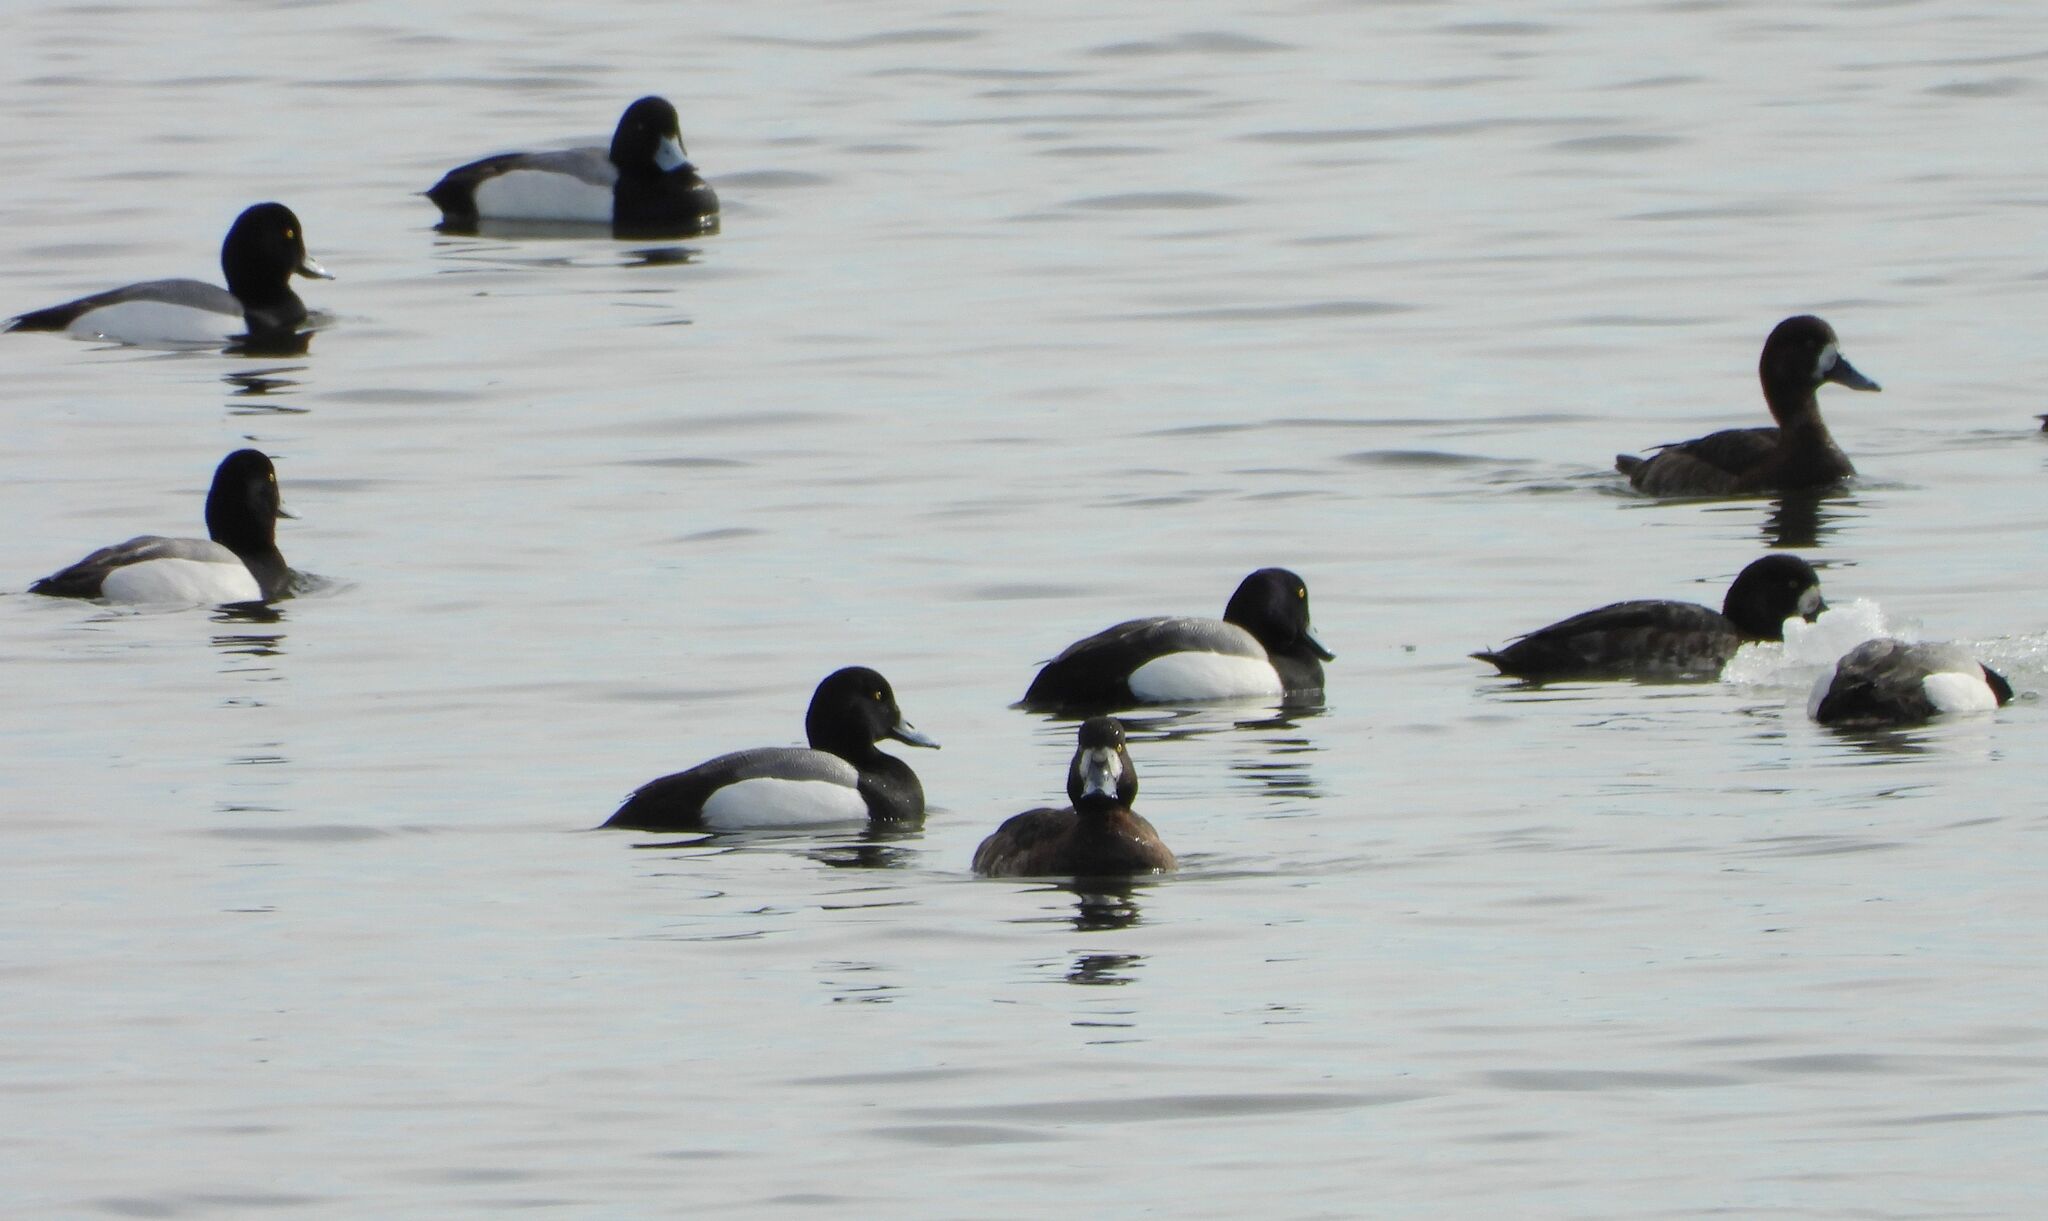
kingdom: Animalia
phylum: Chordata
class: Aves
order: Anseriformes
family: Anatidae
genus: Aythya
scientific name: Aythya marila
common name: Greater scaup
